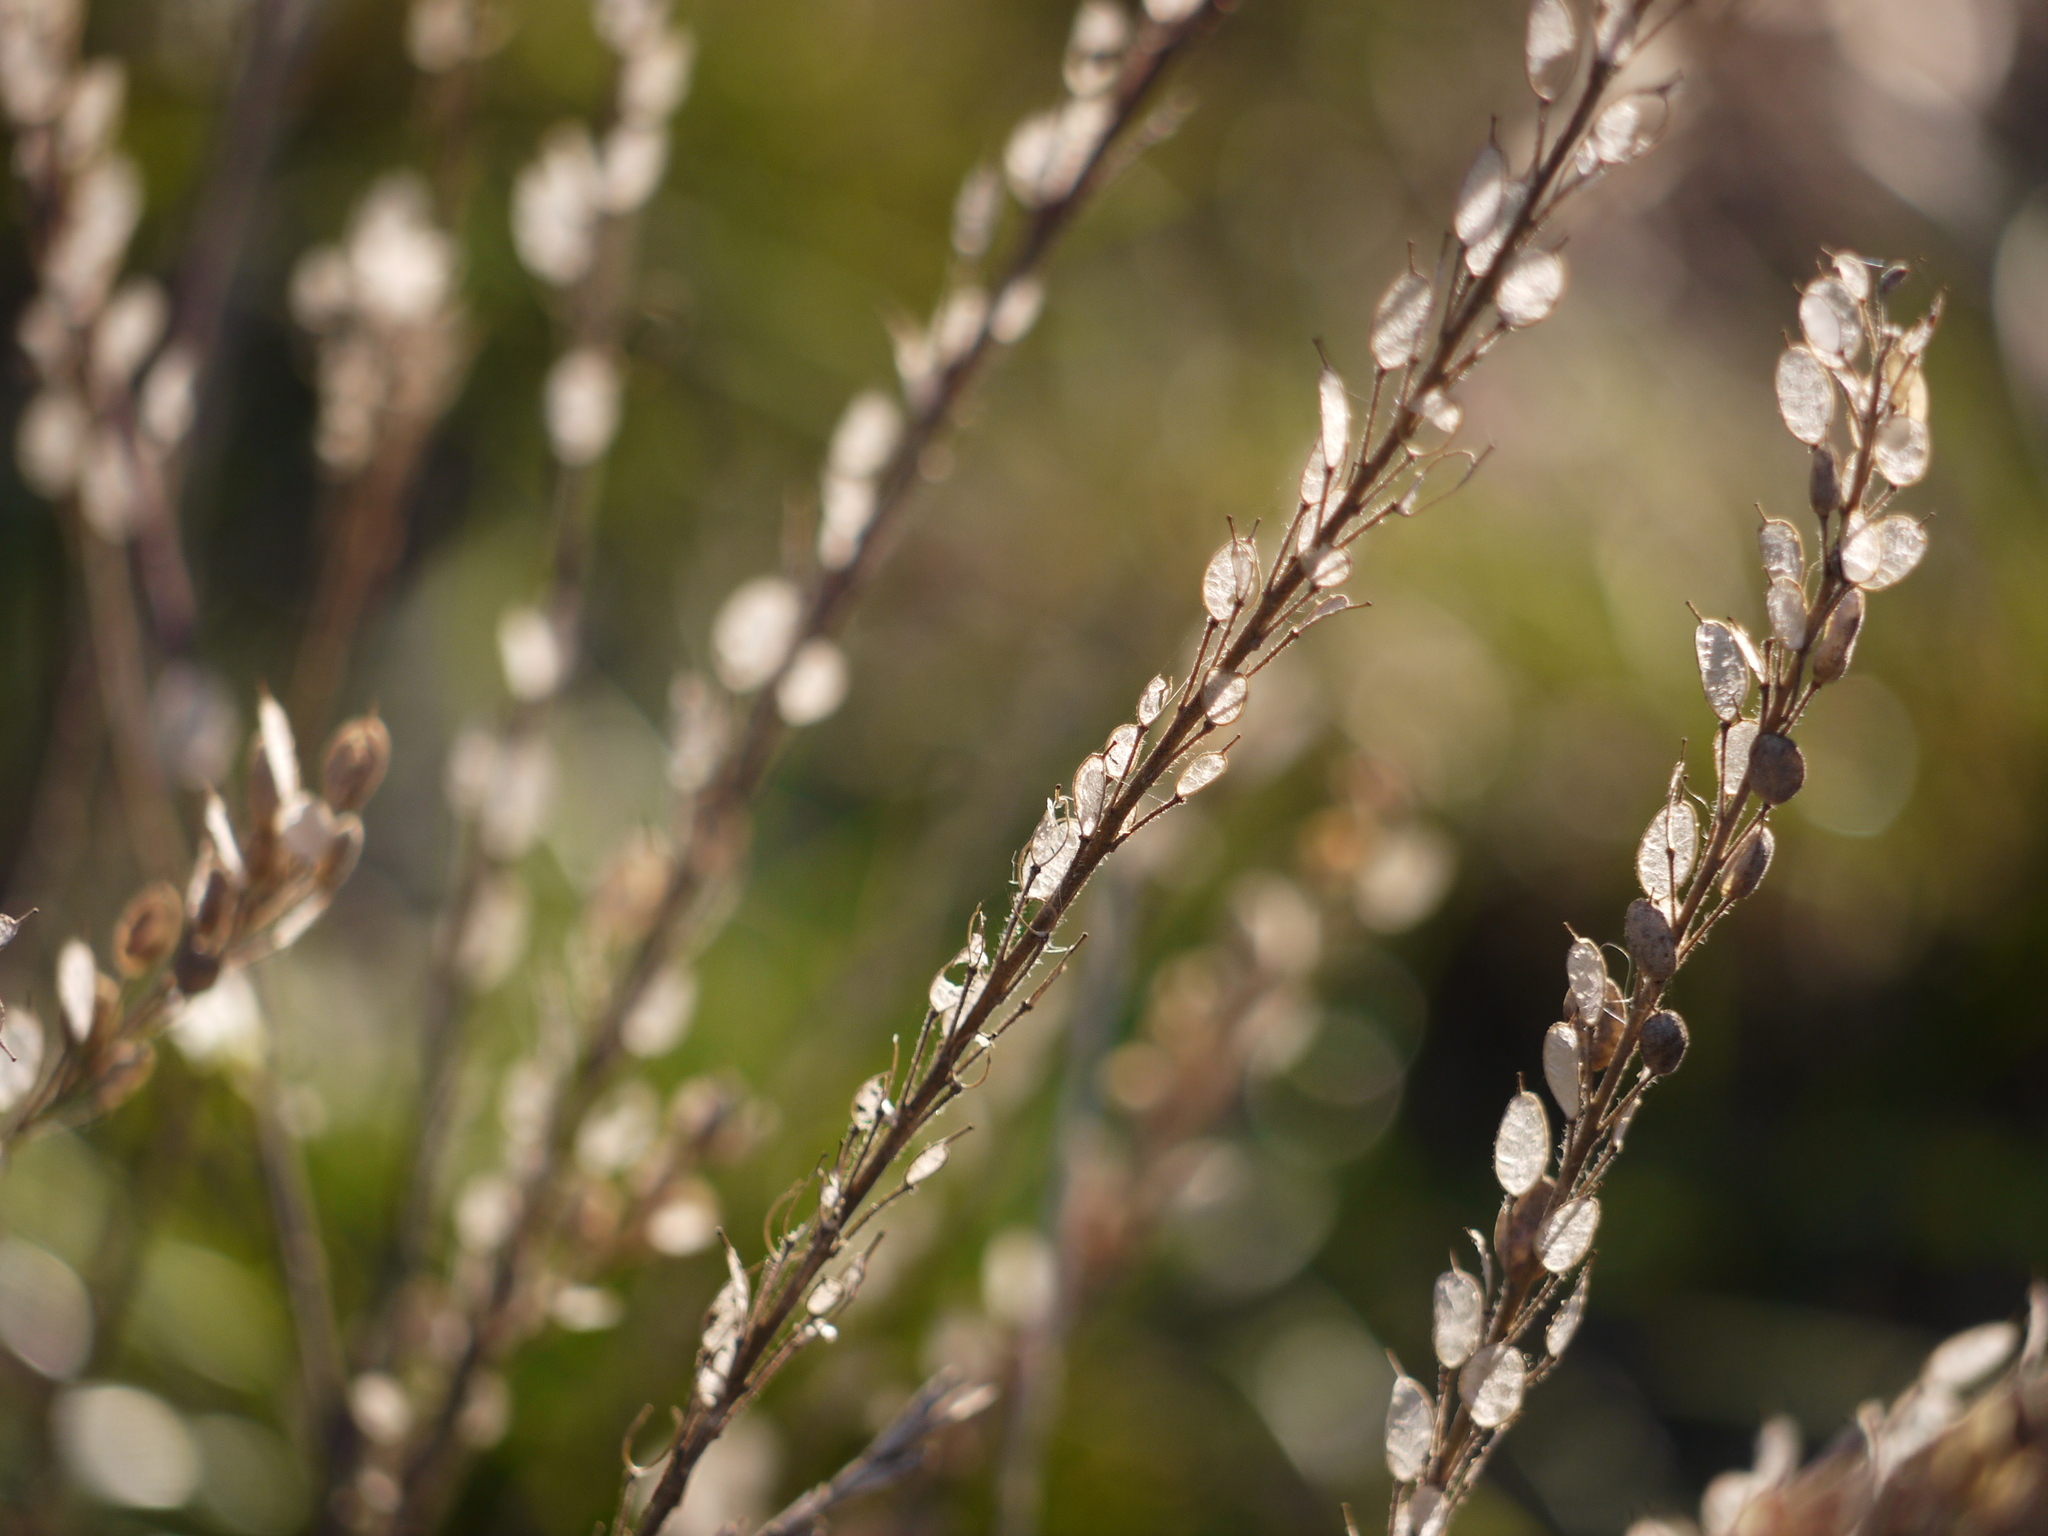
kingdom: Plantae
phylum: Tracheophyta
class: Magnoliopsida
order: Brassicales
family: Brassicaceae
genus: Berteroa
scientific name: Berteroa incana
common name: Hoary alison
